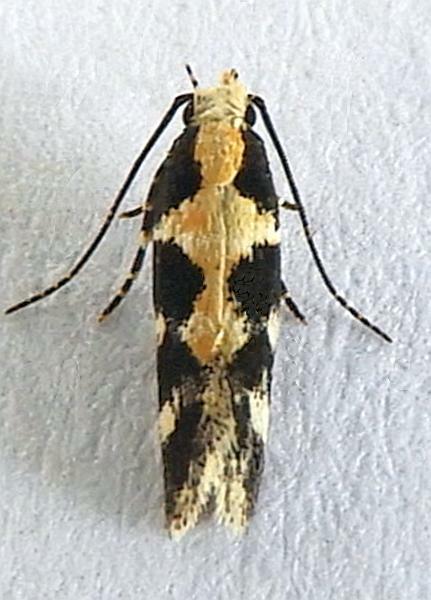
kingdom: Animalia
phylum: Arthropoda
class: Insecta
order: Lepidoptera
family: Gelechiidae
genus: Stegasta
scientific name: Stegasta capitella
